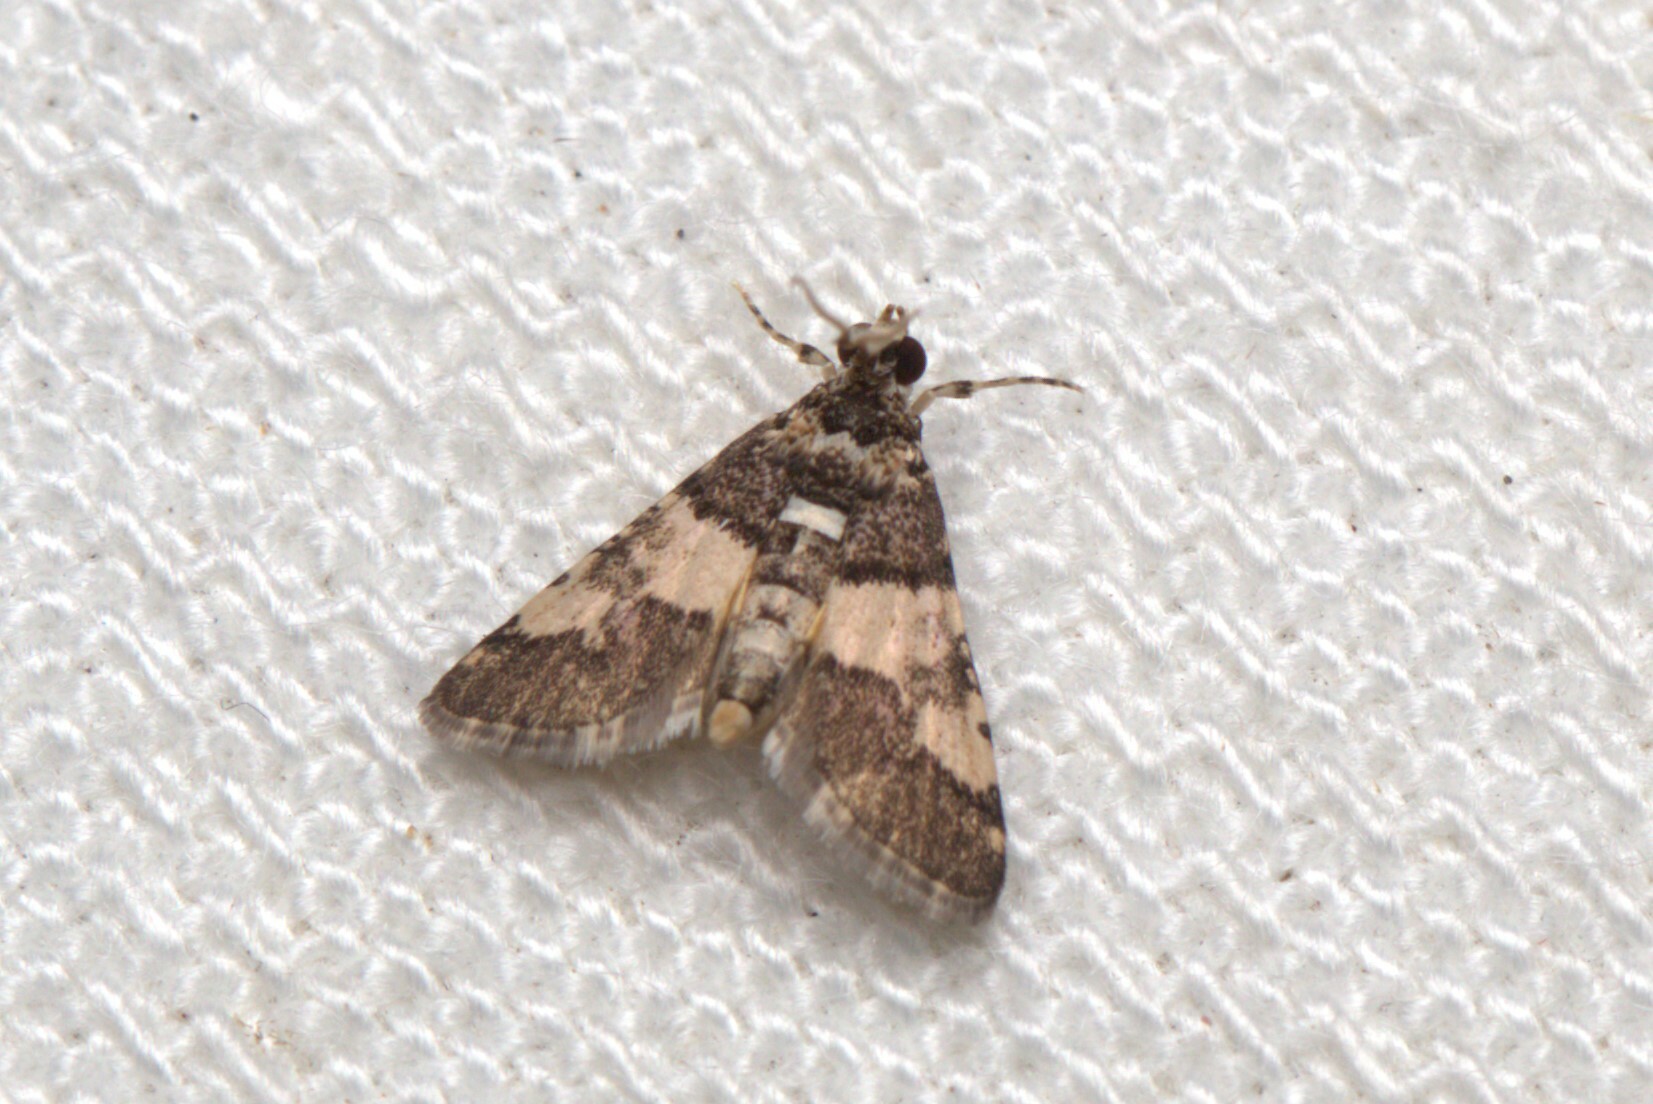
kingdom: Animalia
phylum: Arthropoda
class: Insecta
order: Lepidoptera
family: Crambidae
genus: Nacoleia
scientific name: Nacoleia mesochlora
